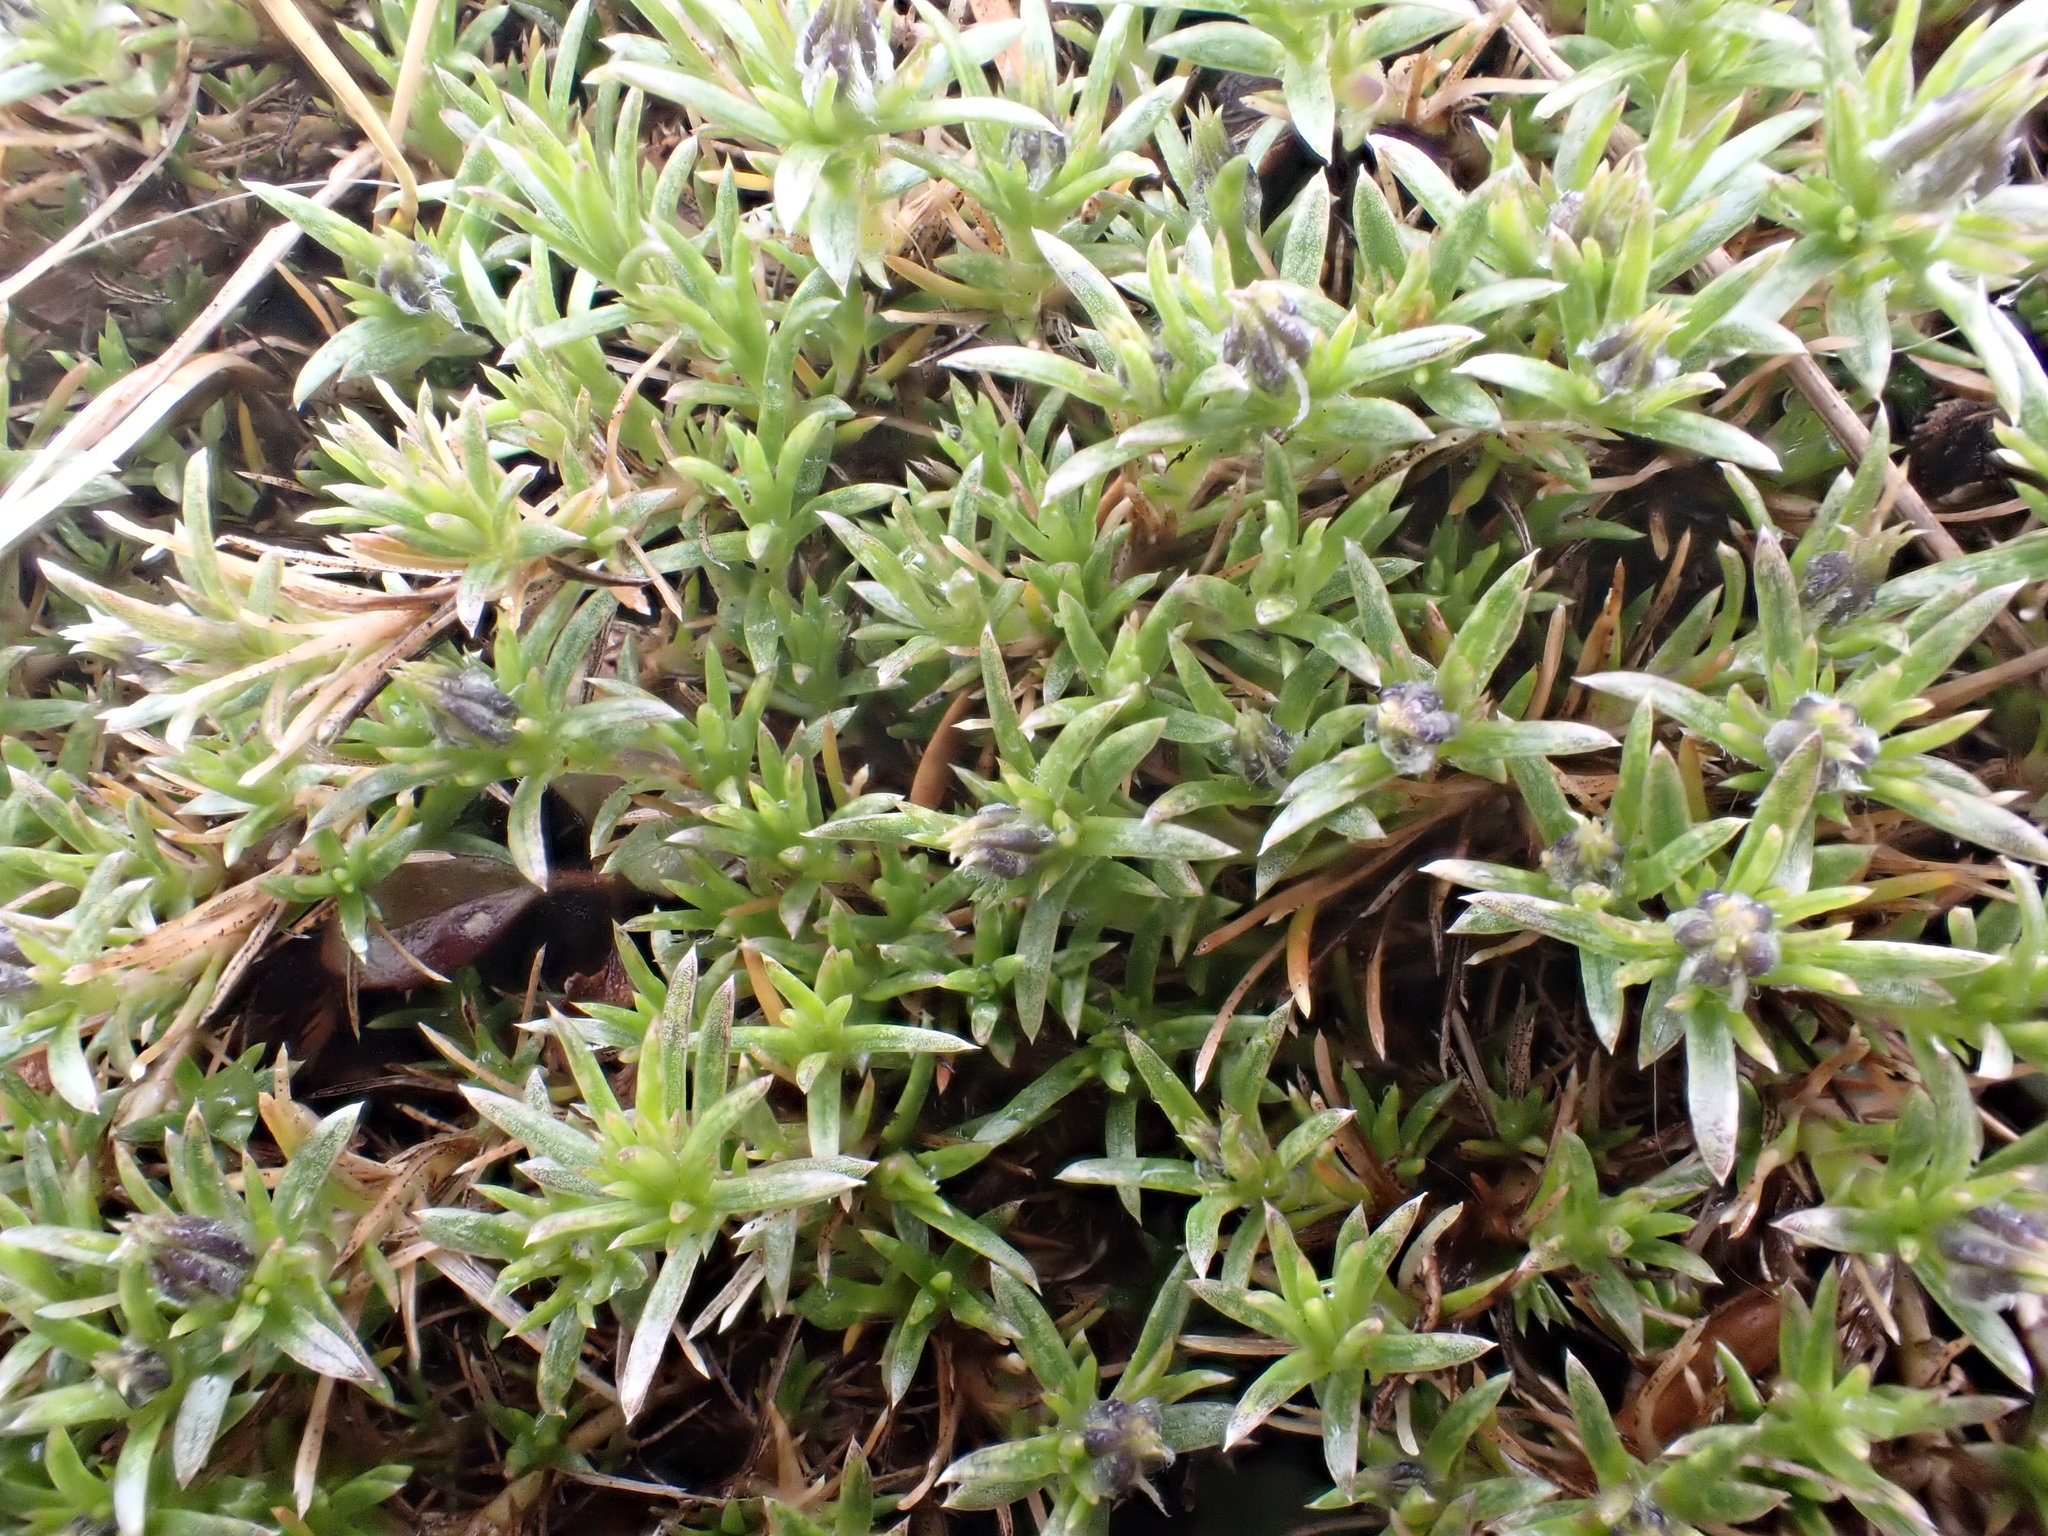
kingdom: Plantae
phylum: Tracheophyta
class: Magnoliopsida
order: Ericales
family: Polemoniaceae
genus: Phlox
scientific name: Phlox diffusa
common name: Mat phlox
